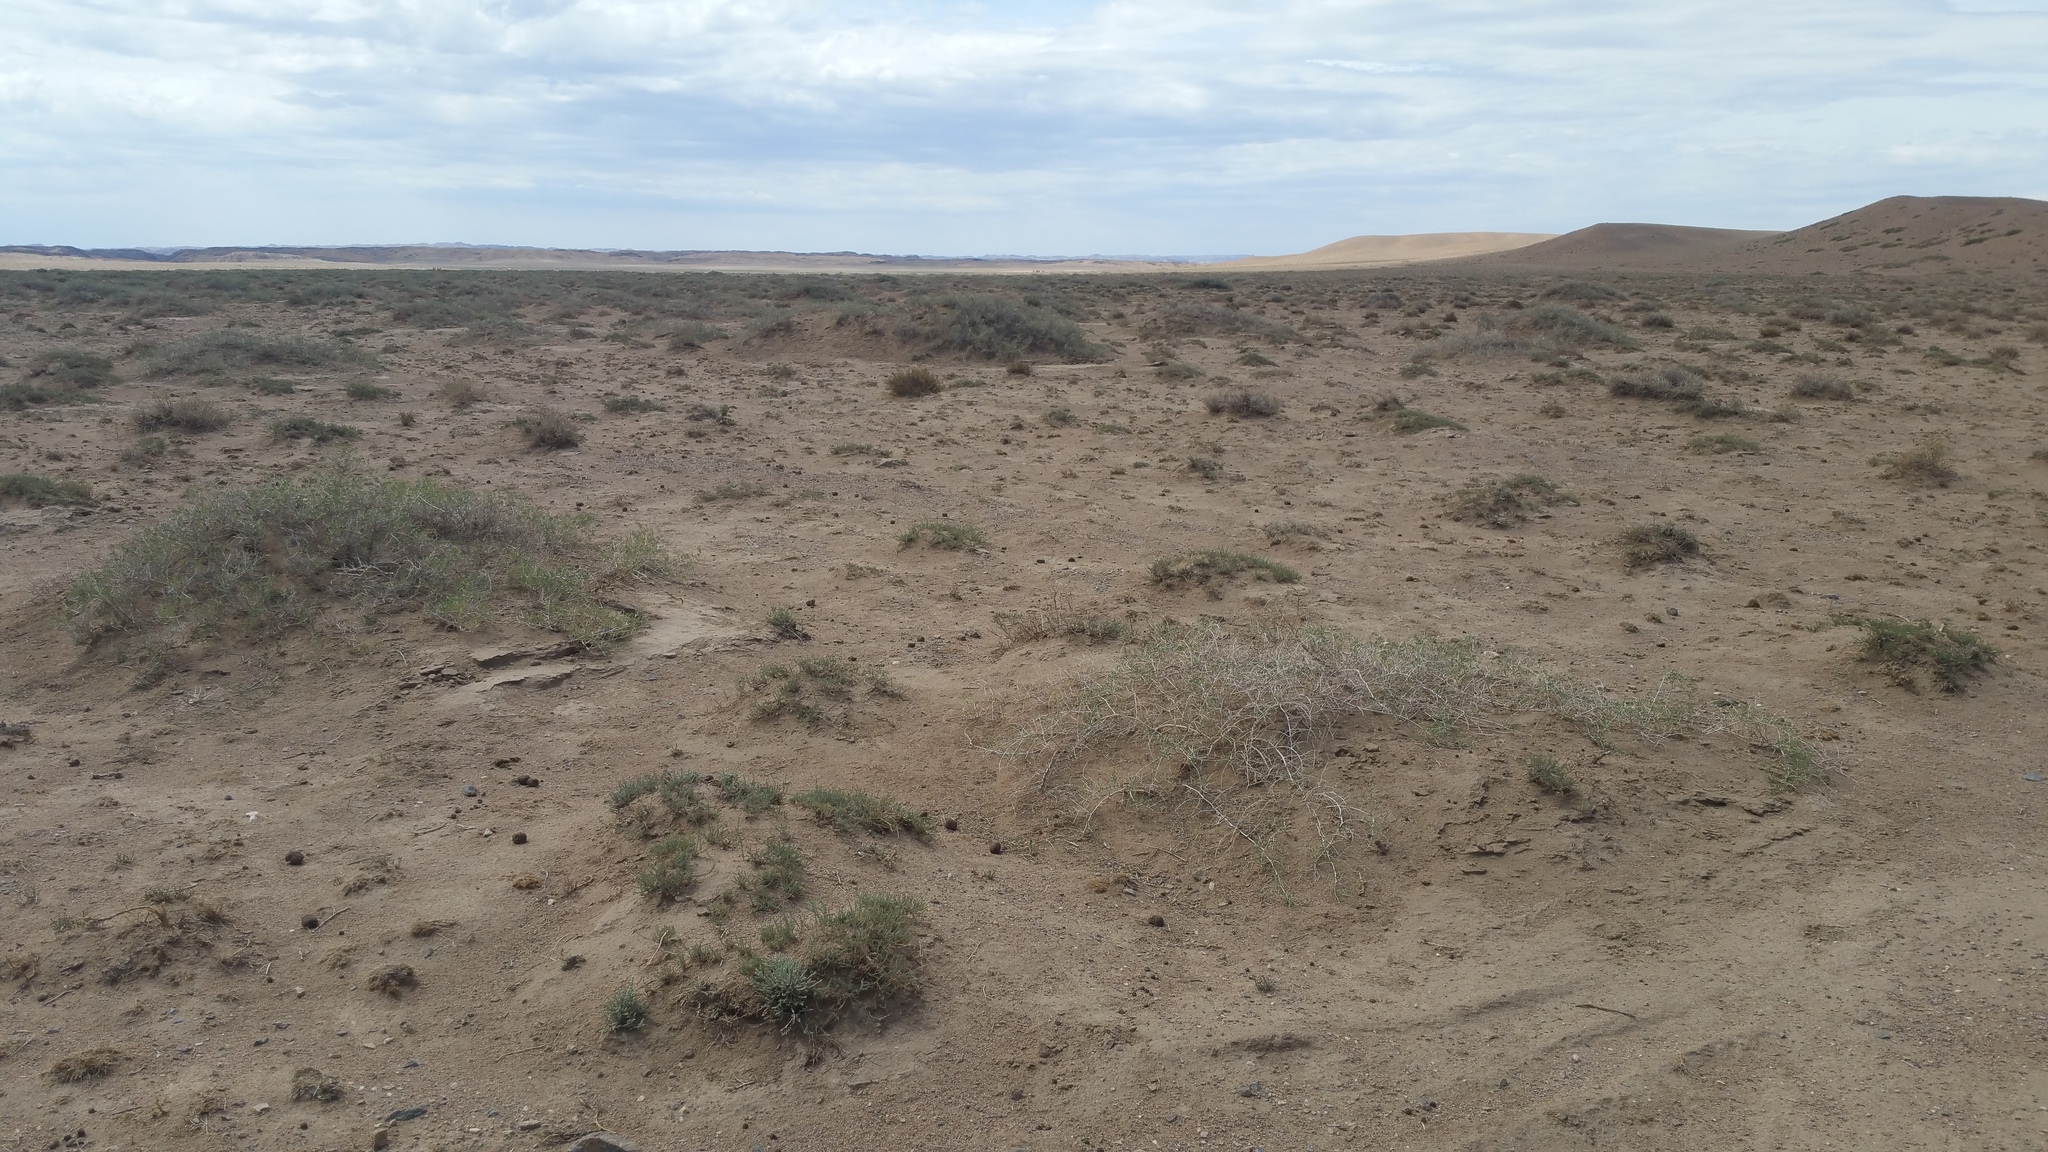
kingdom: Plantae
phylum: Tracheophyta
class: Magnoliopsida
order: Sapindales
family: Nitrariaceae
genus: Nitraria
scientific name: Nitraria sibirica
